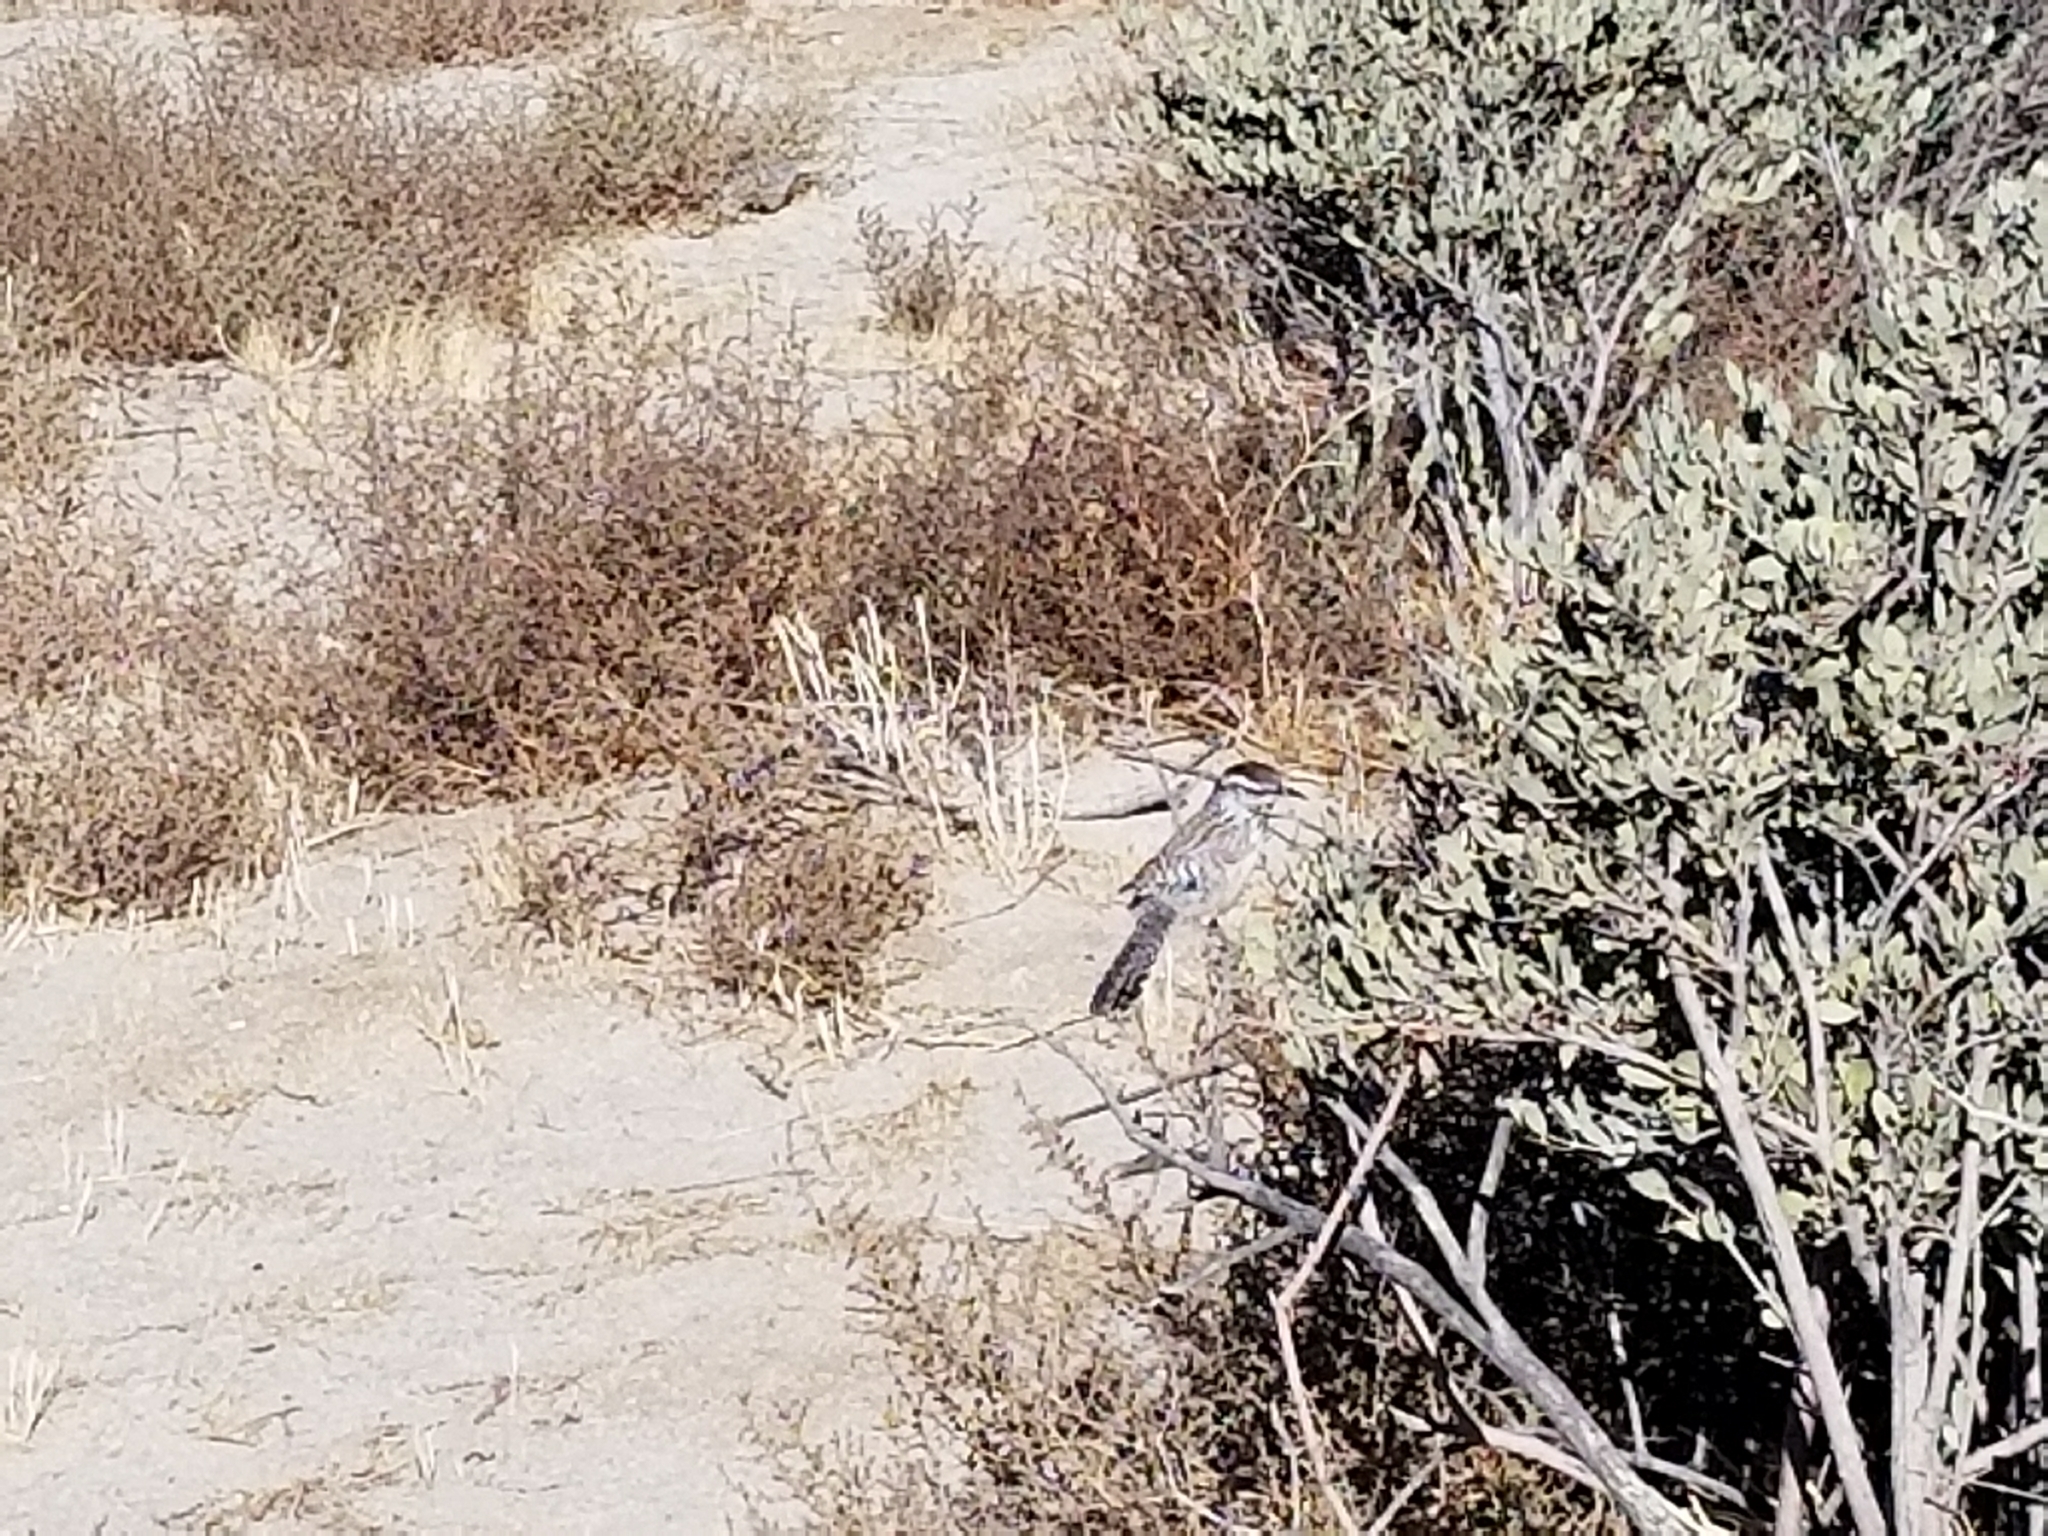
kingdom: Animalia
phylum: Chordata
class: Aves
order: Passeriformes
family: Troglodytidae
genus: Campylorhynchus
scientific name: Campylorhynchus brunneicapillus
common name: Cactus wren
